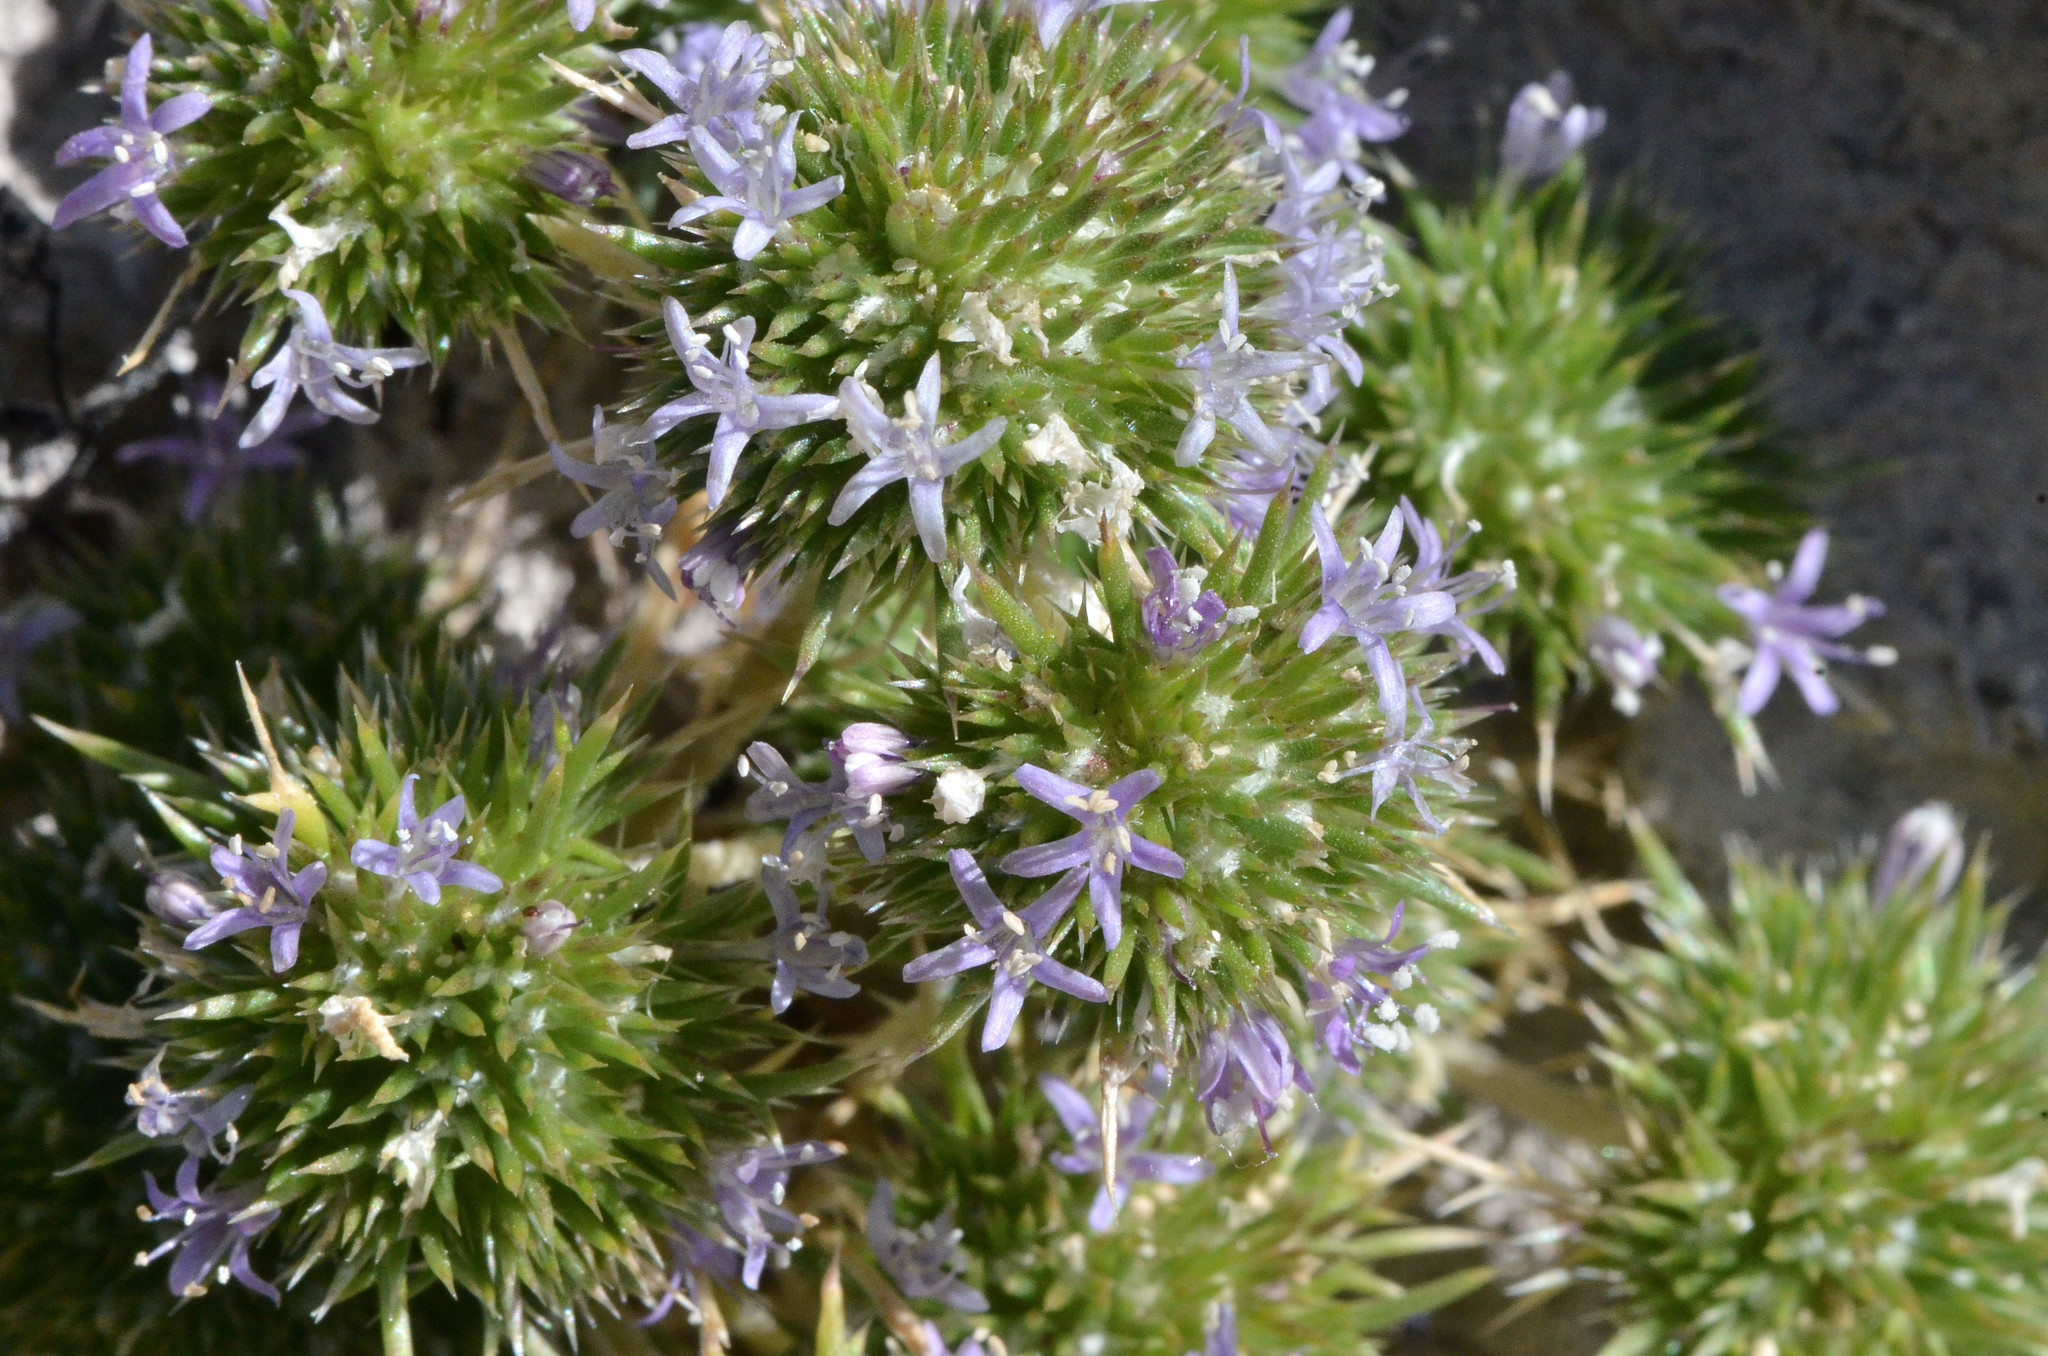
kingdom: Plantae
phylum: Tracheophyta
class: Magnoliopsida
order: Ericales
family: Polemoniaceae
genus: Navarretia
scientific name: Navarretia leucocephala
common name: White-flowered navarretia
